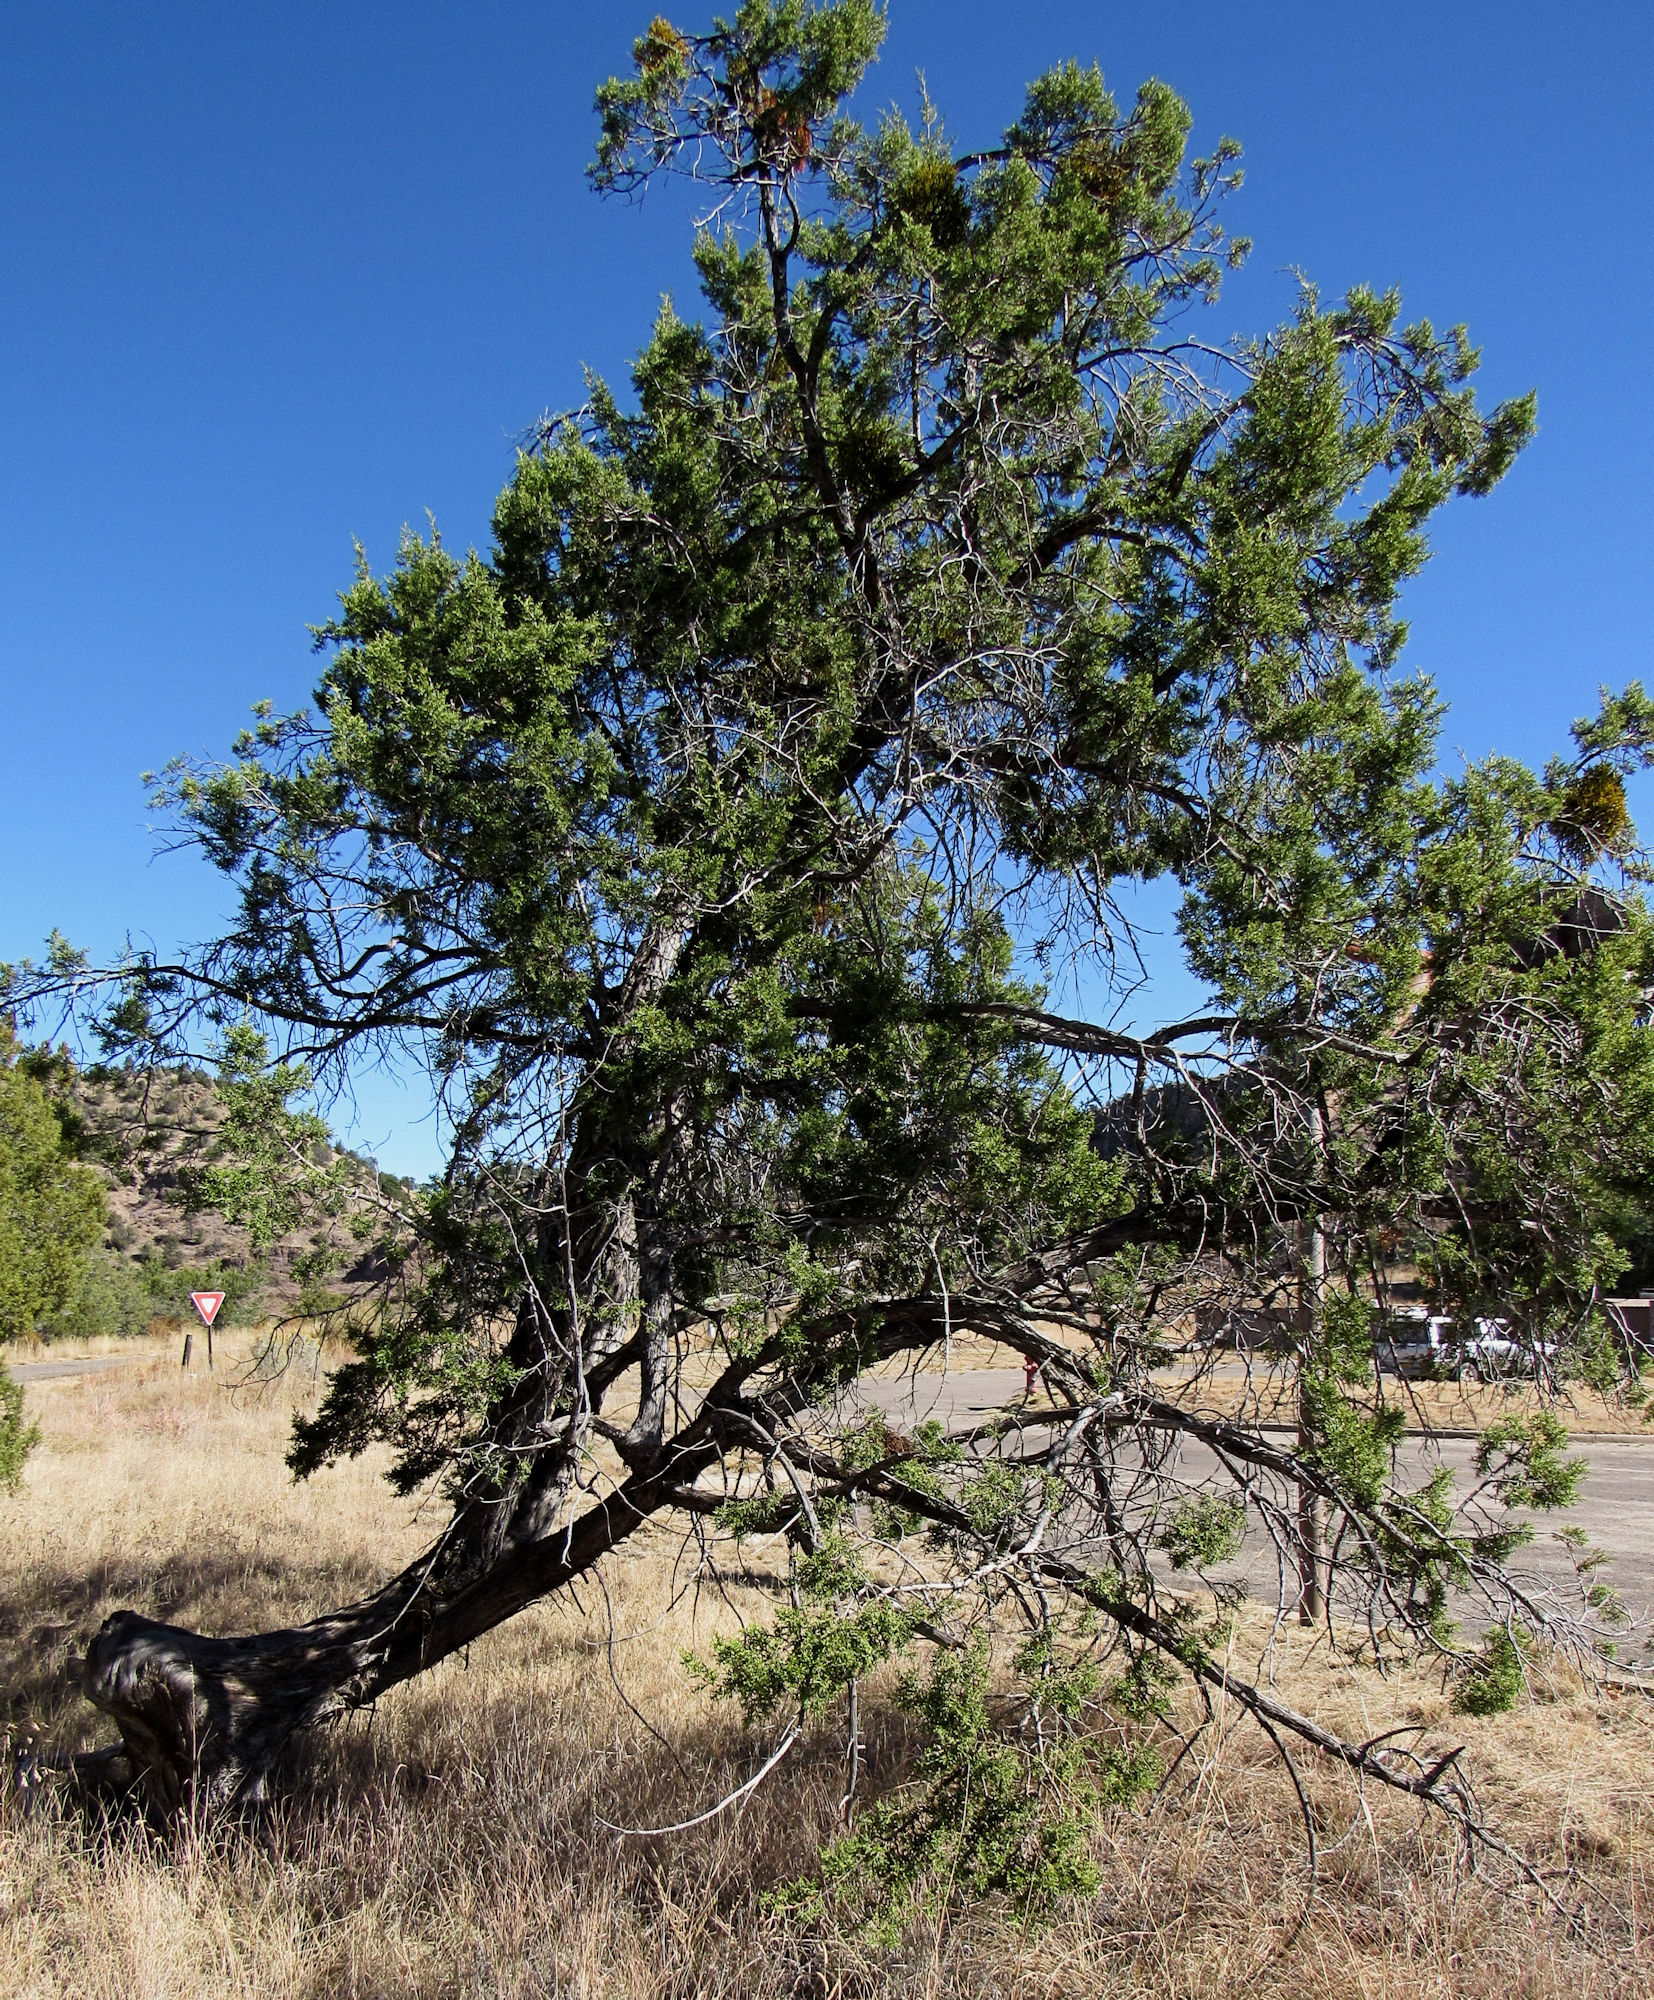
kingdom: Plantae
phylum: Tracheophyta
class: Pinopsida
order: Pinales
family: Cupressaceae
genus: Juniperus
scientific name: Juniperus monosperma
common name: One-seed juniper
